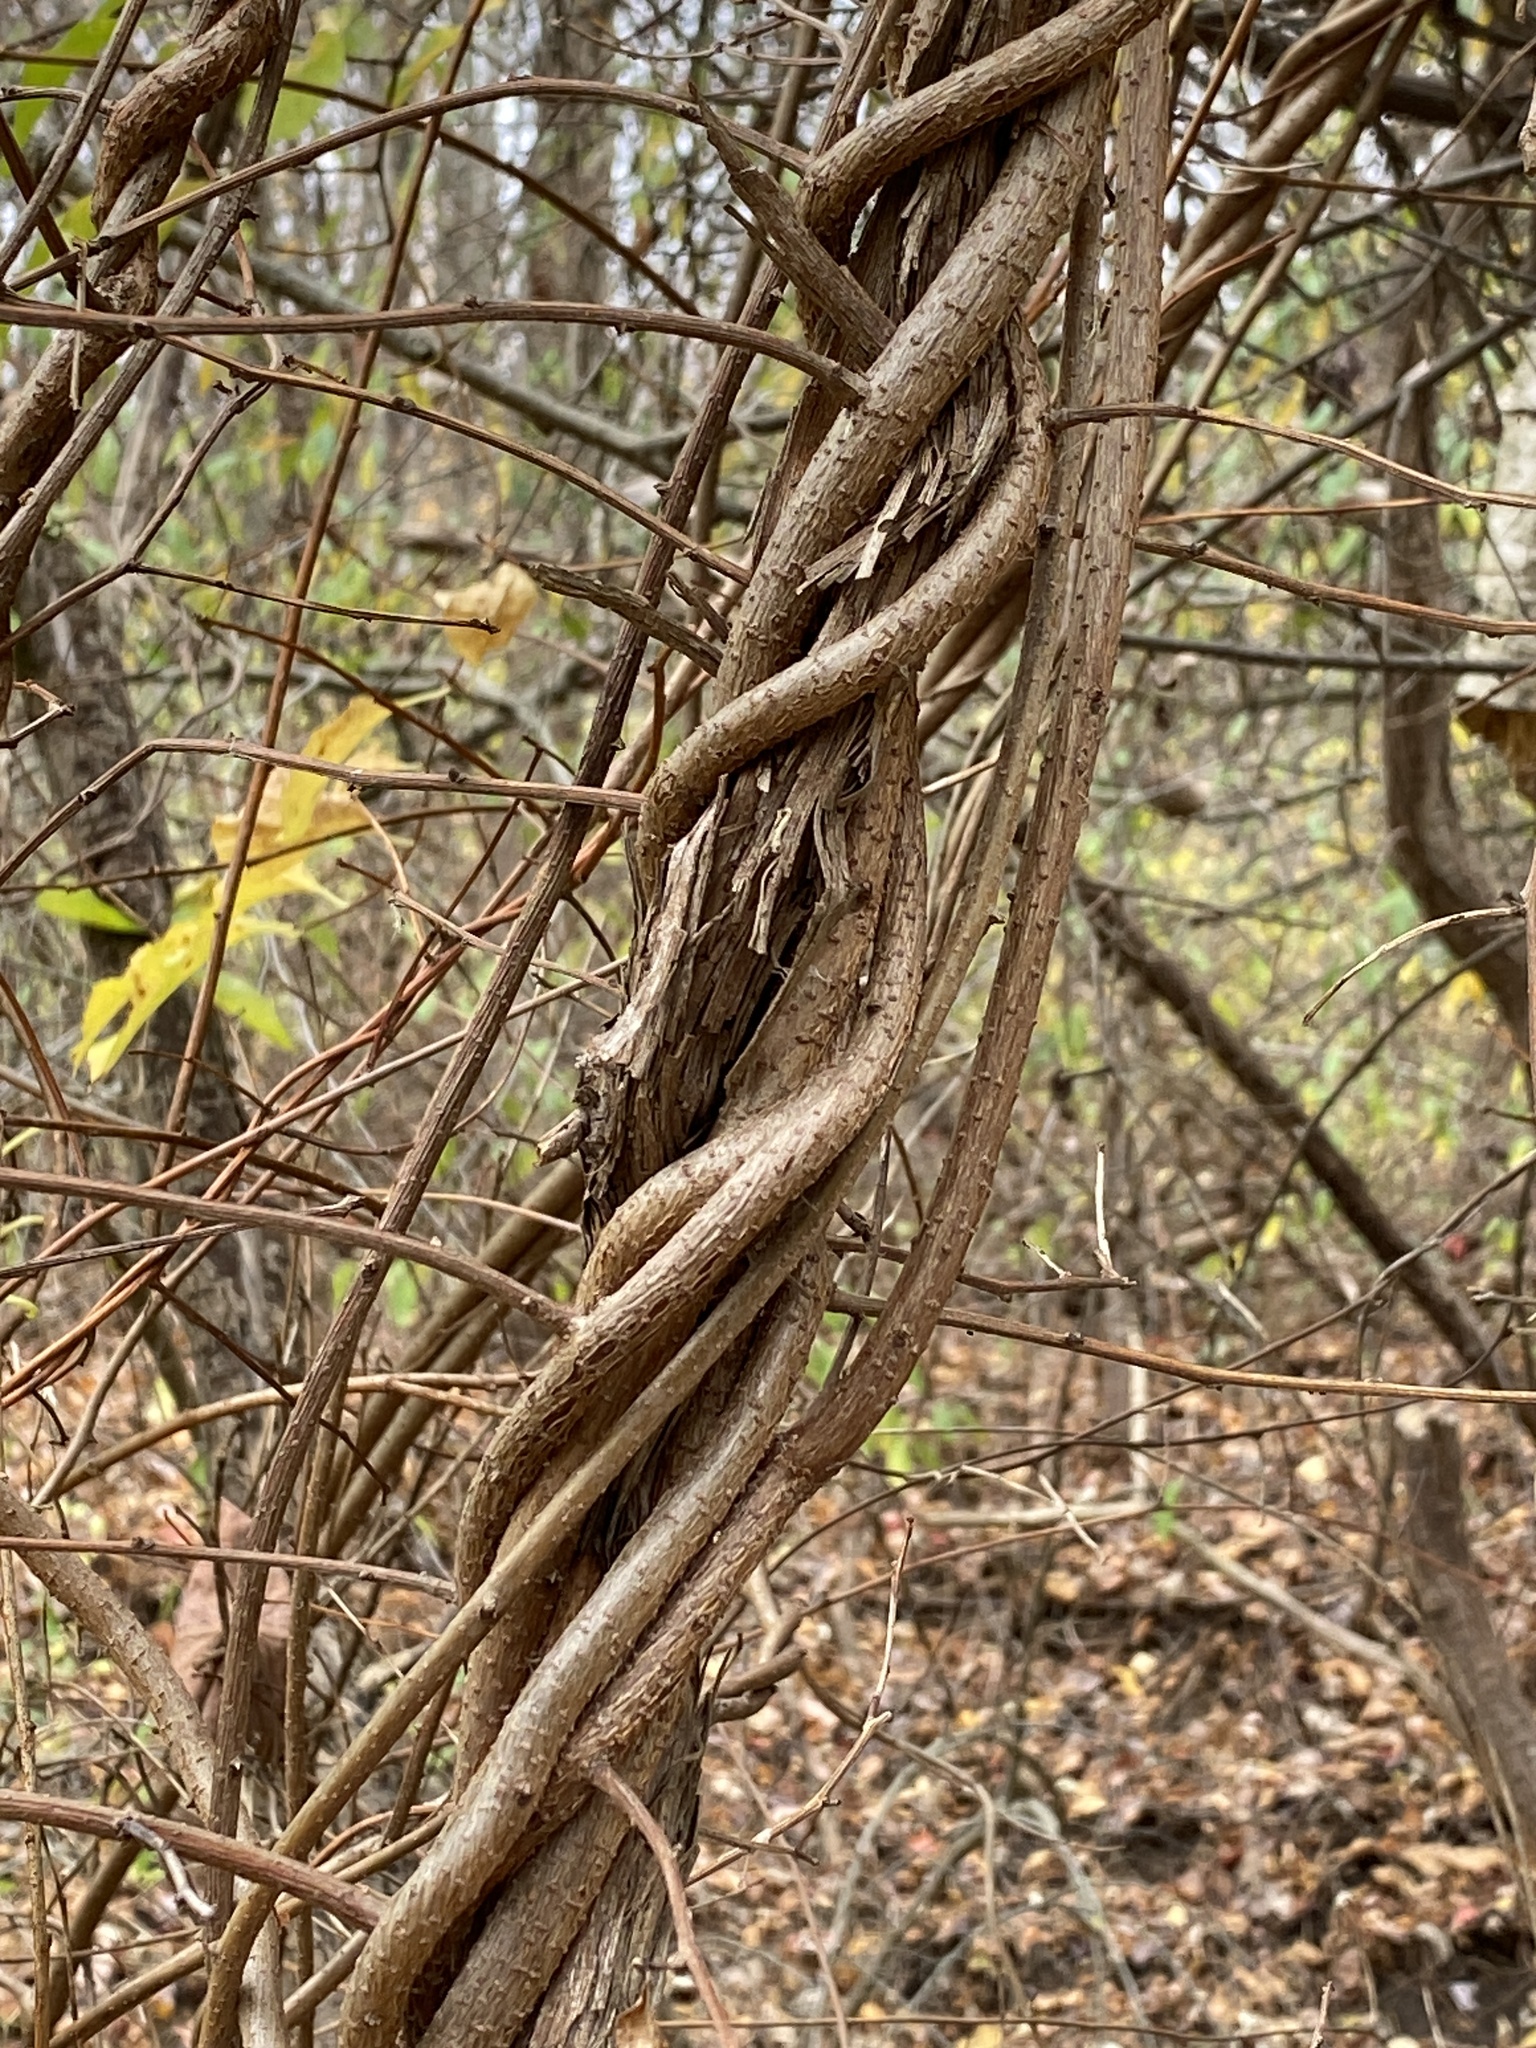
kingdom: Plantae
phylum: Tracheophyta
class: Magnoliopsida
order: Celastrales
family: Celastraceae
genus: Celastrus
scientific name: Celastrus orbiculatus
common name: Oriental bittersweet
